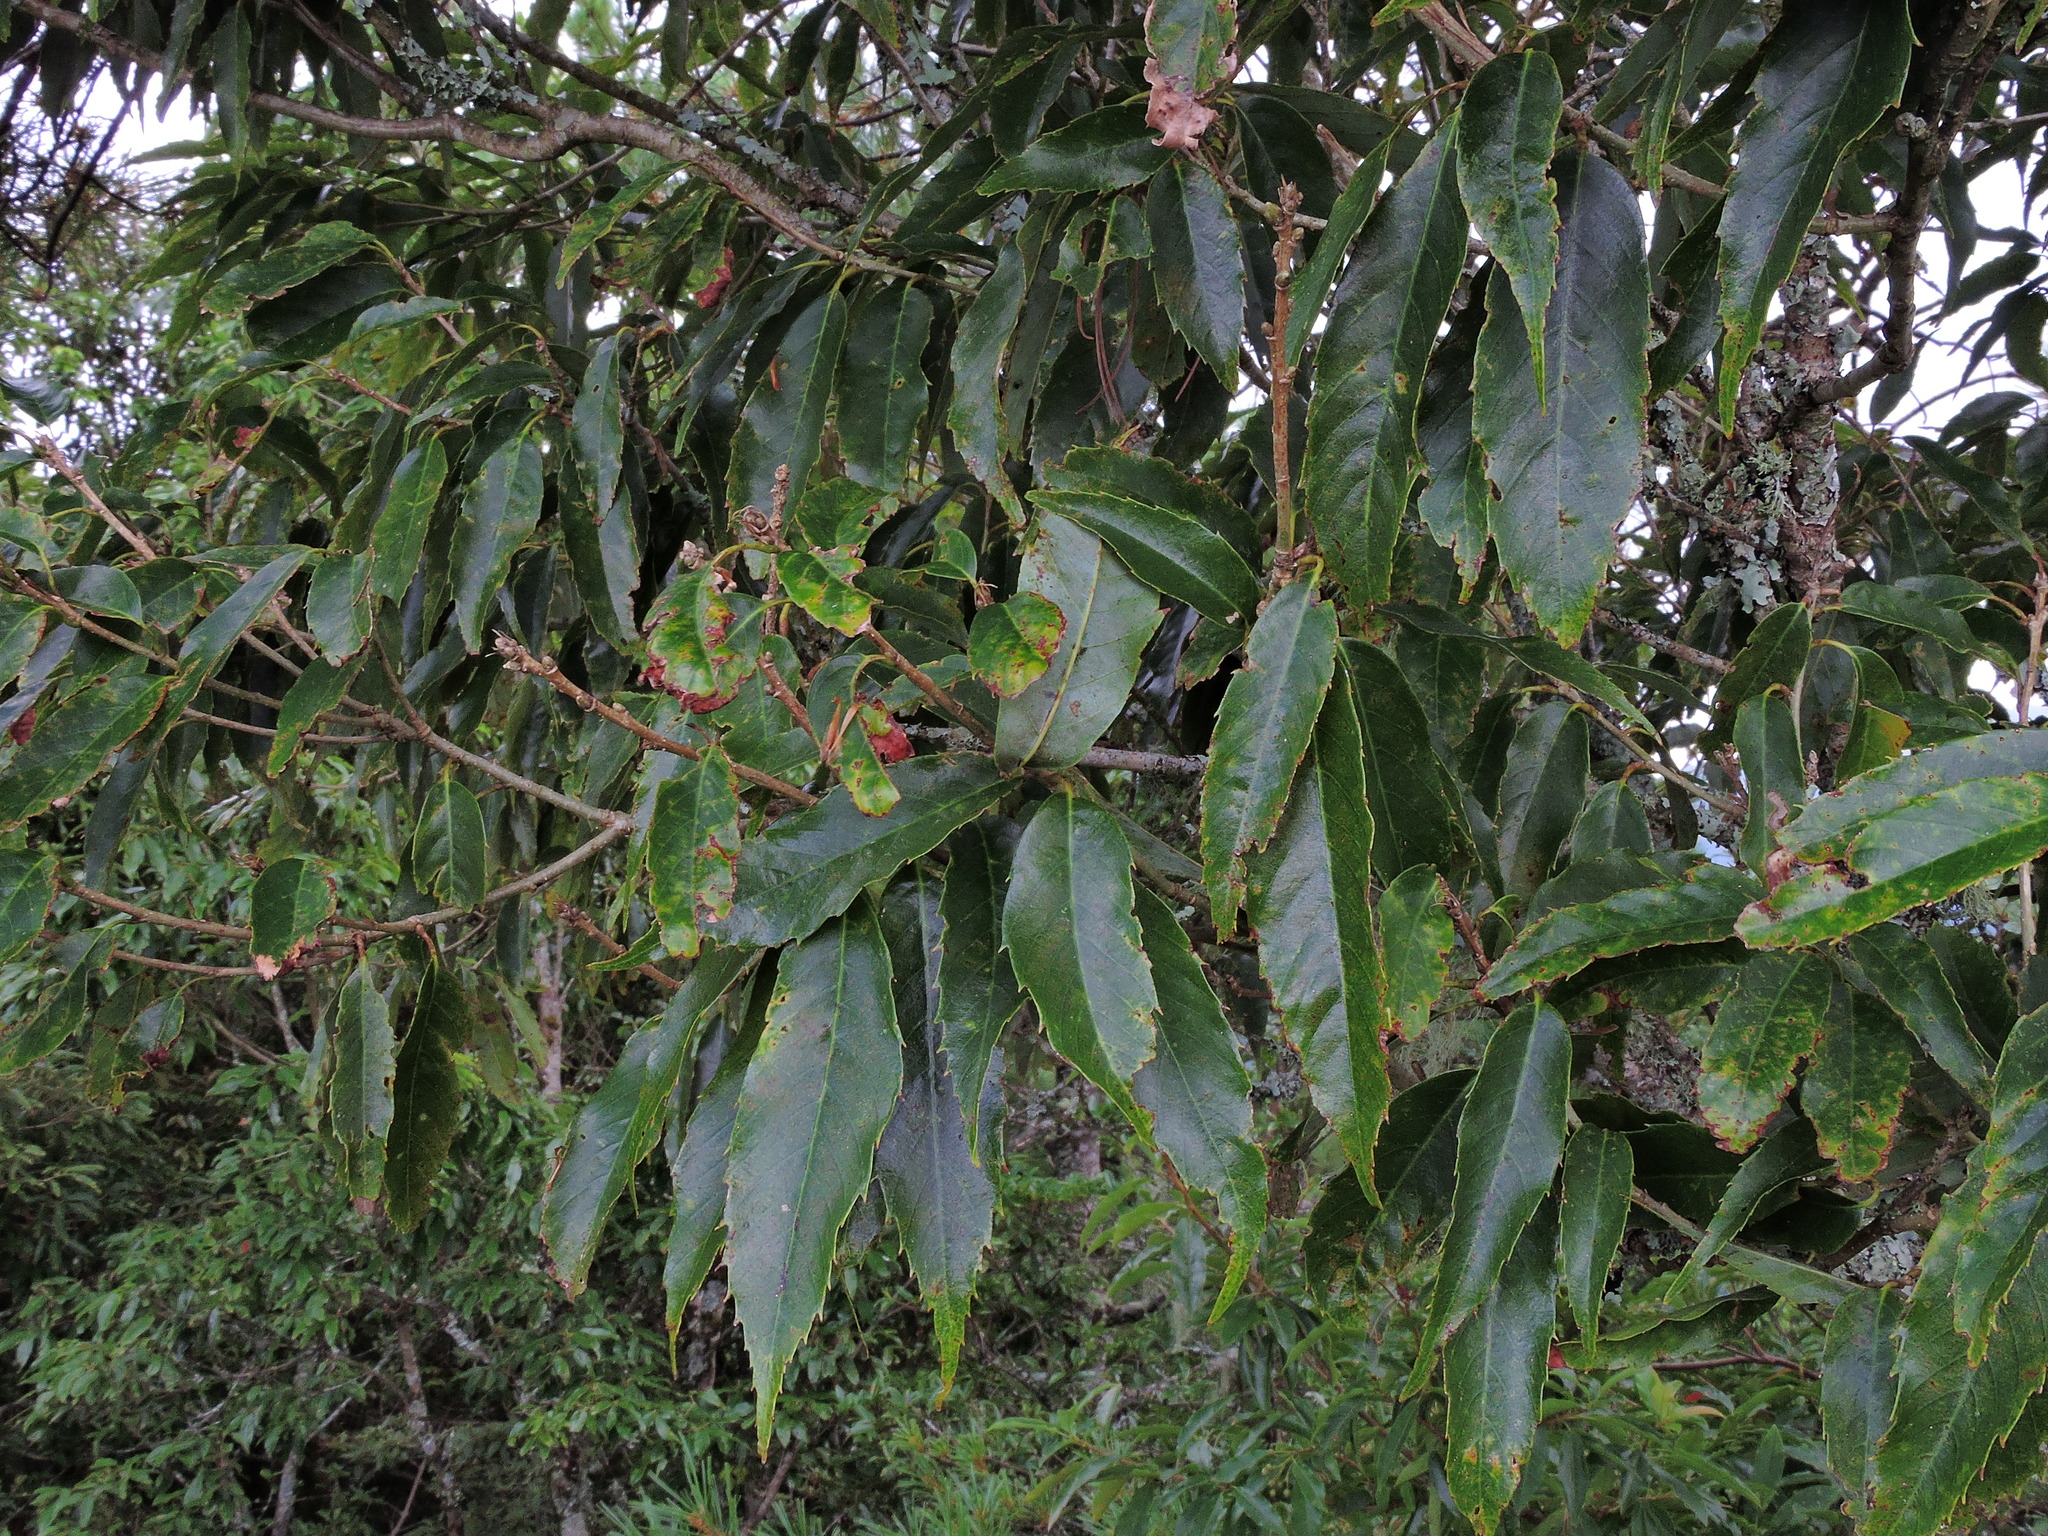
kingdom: Plantae
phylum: Tracheophyta
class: Magnoliopsida
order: Fagales
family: Fagaceae
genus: Quercus
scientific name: Quercus stenophylloides
